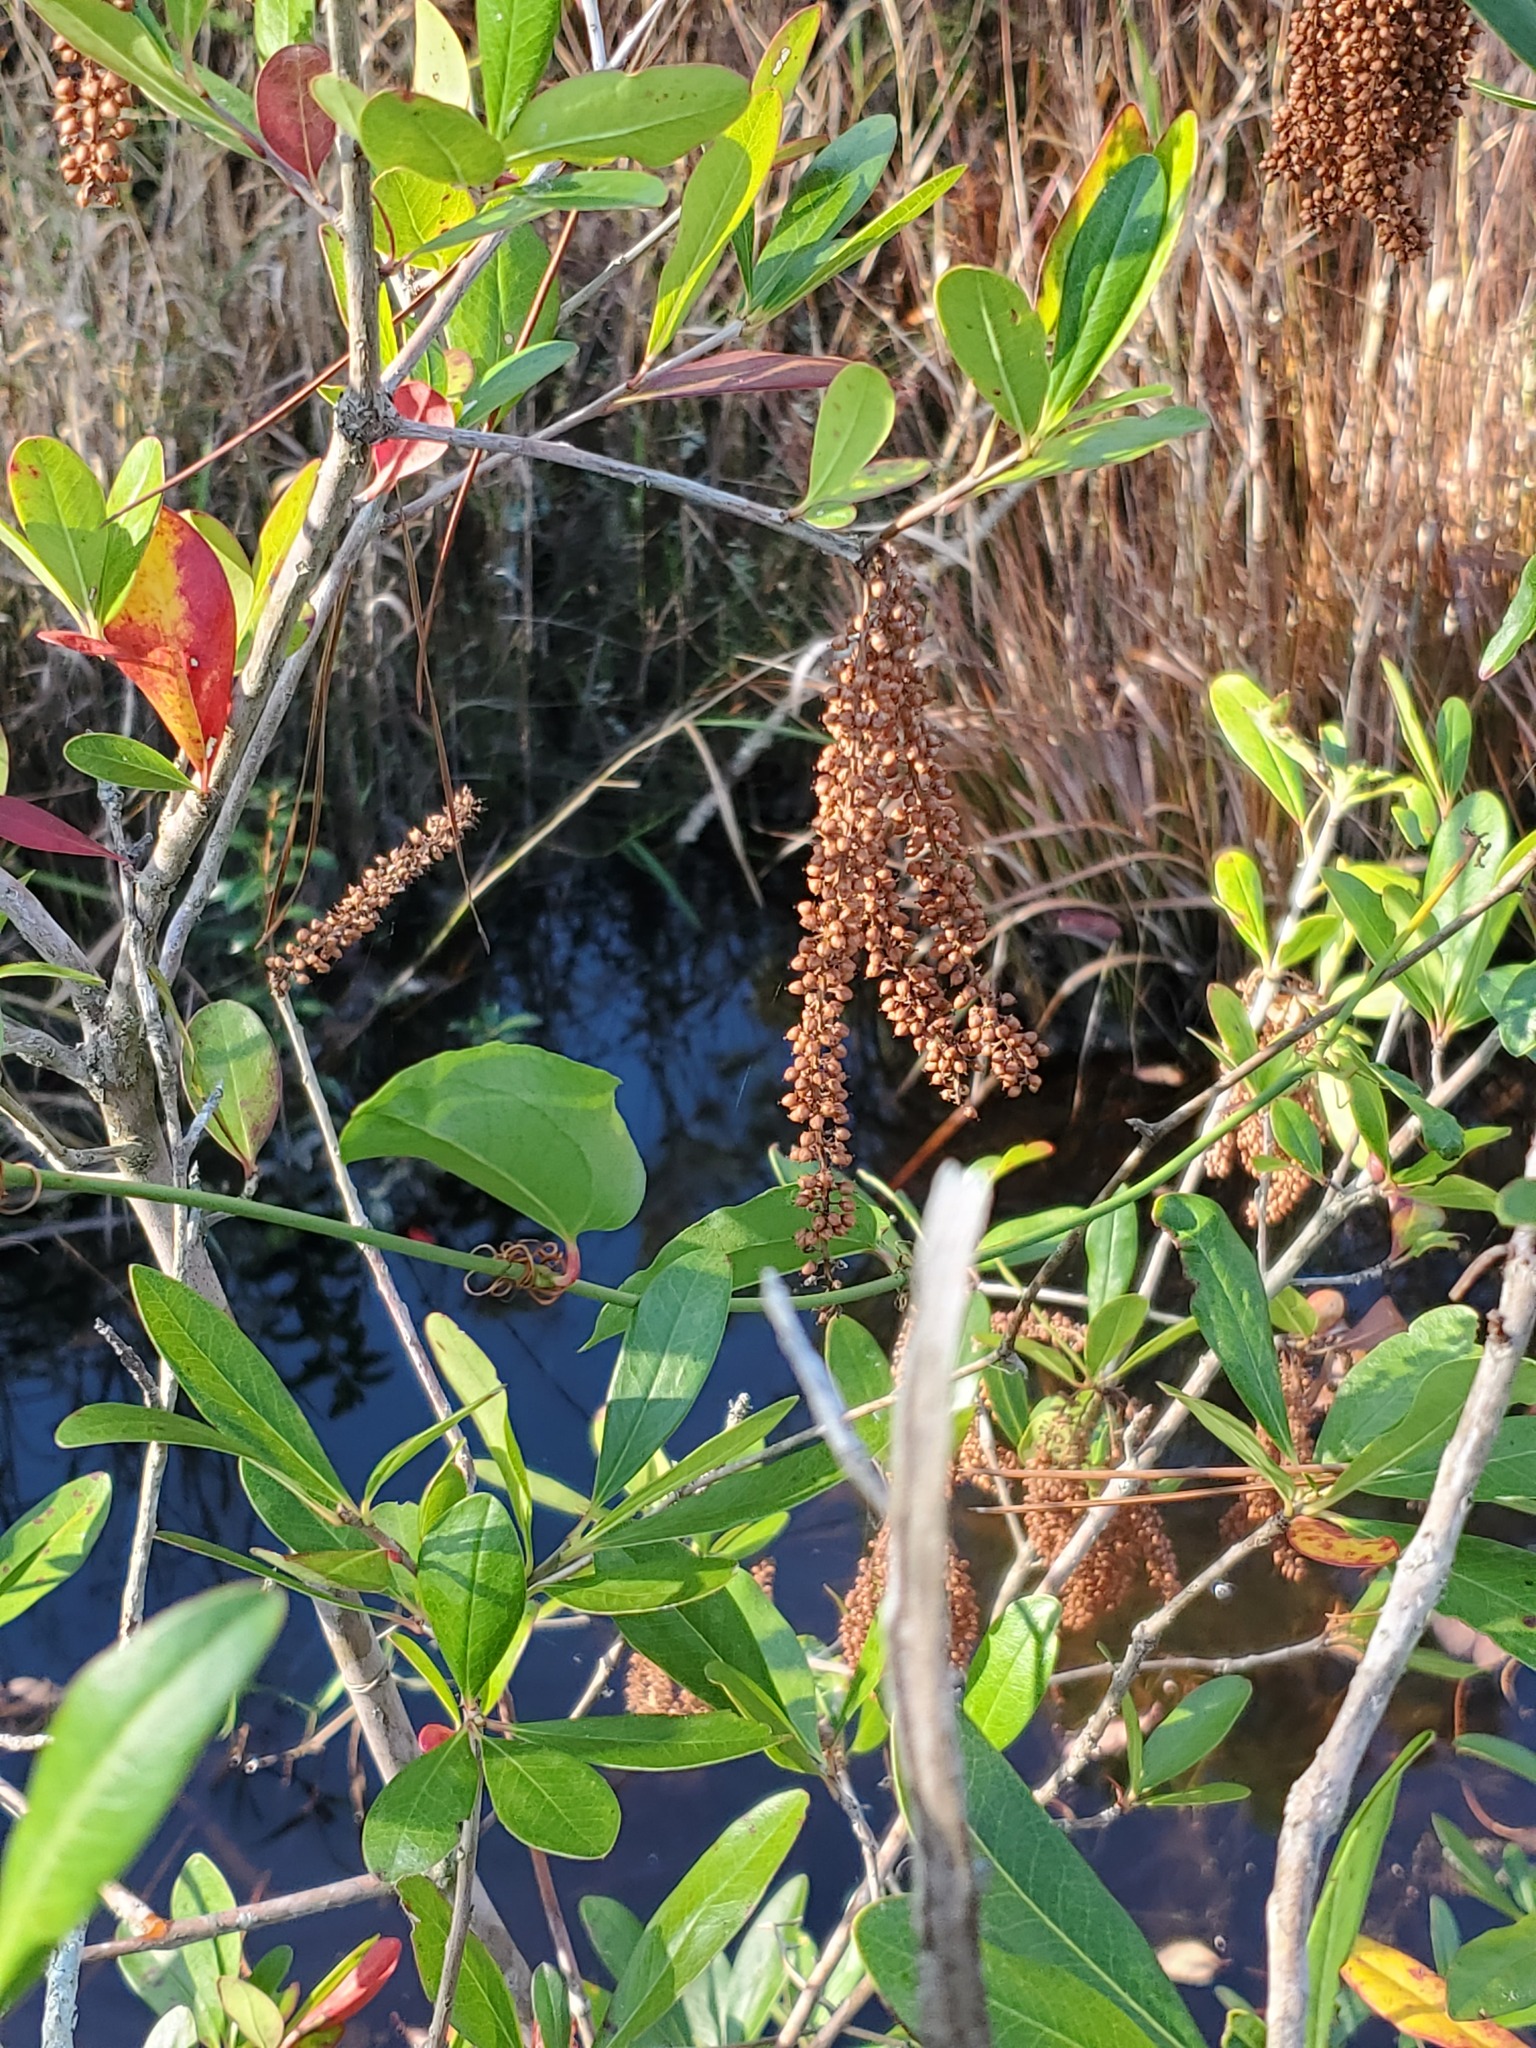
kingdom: Plantae
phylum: Tracheophyta
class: Magnoliopsida
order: Ericales
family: Cyrillaceae
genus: Cyrilla
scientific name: Cyrilla racemiflora
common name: Black titi
